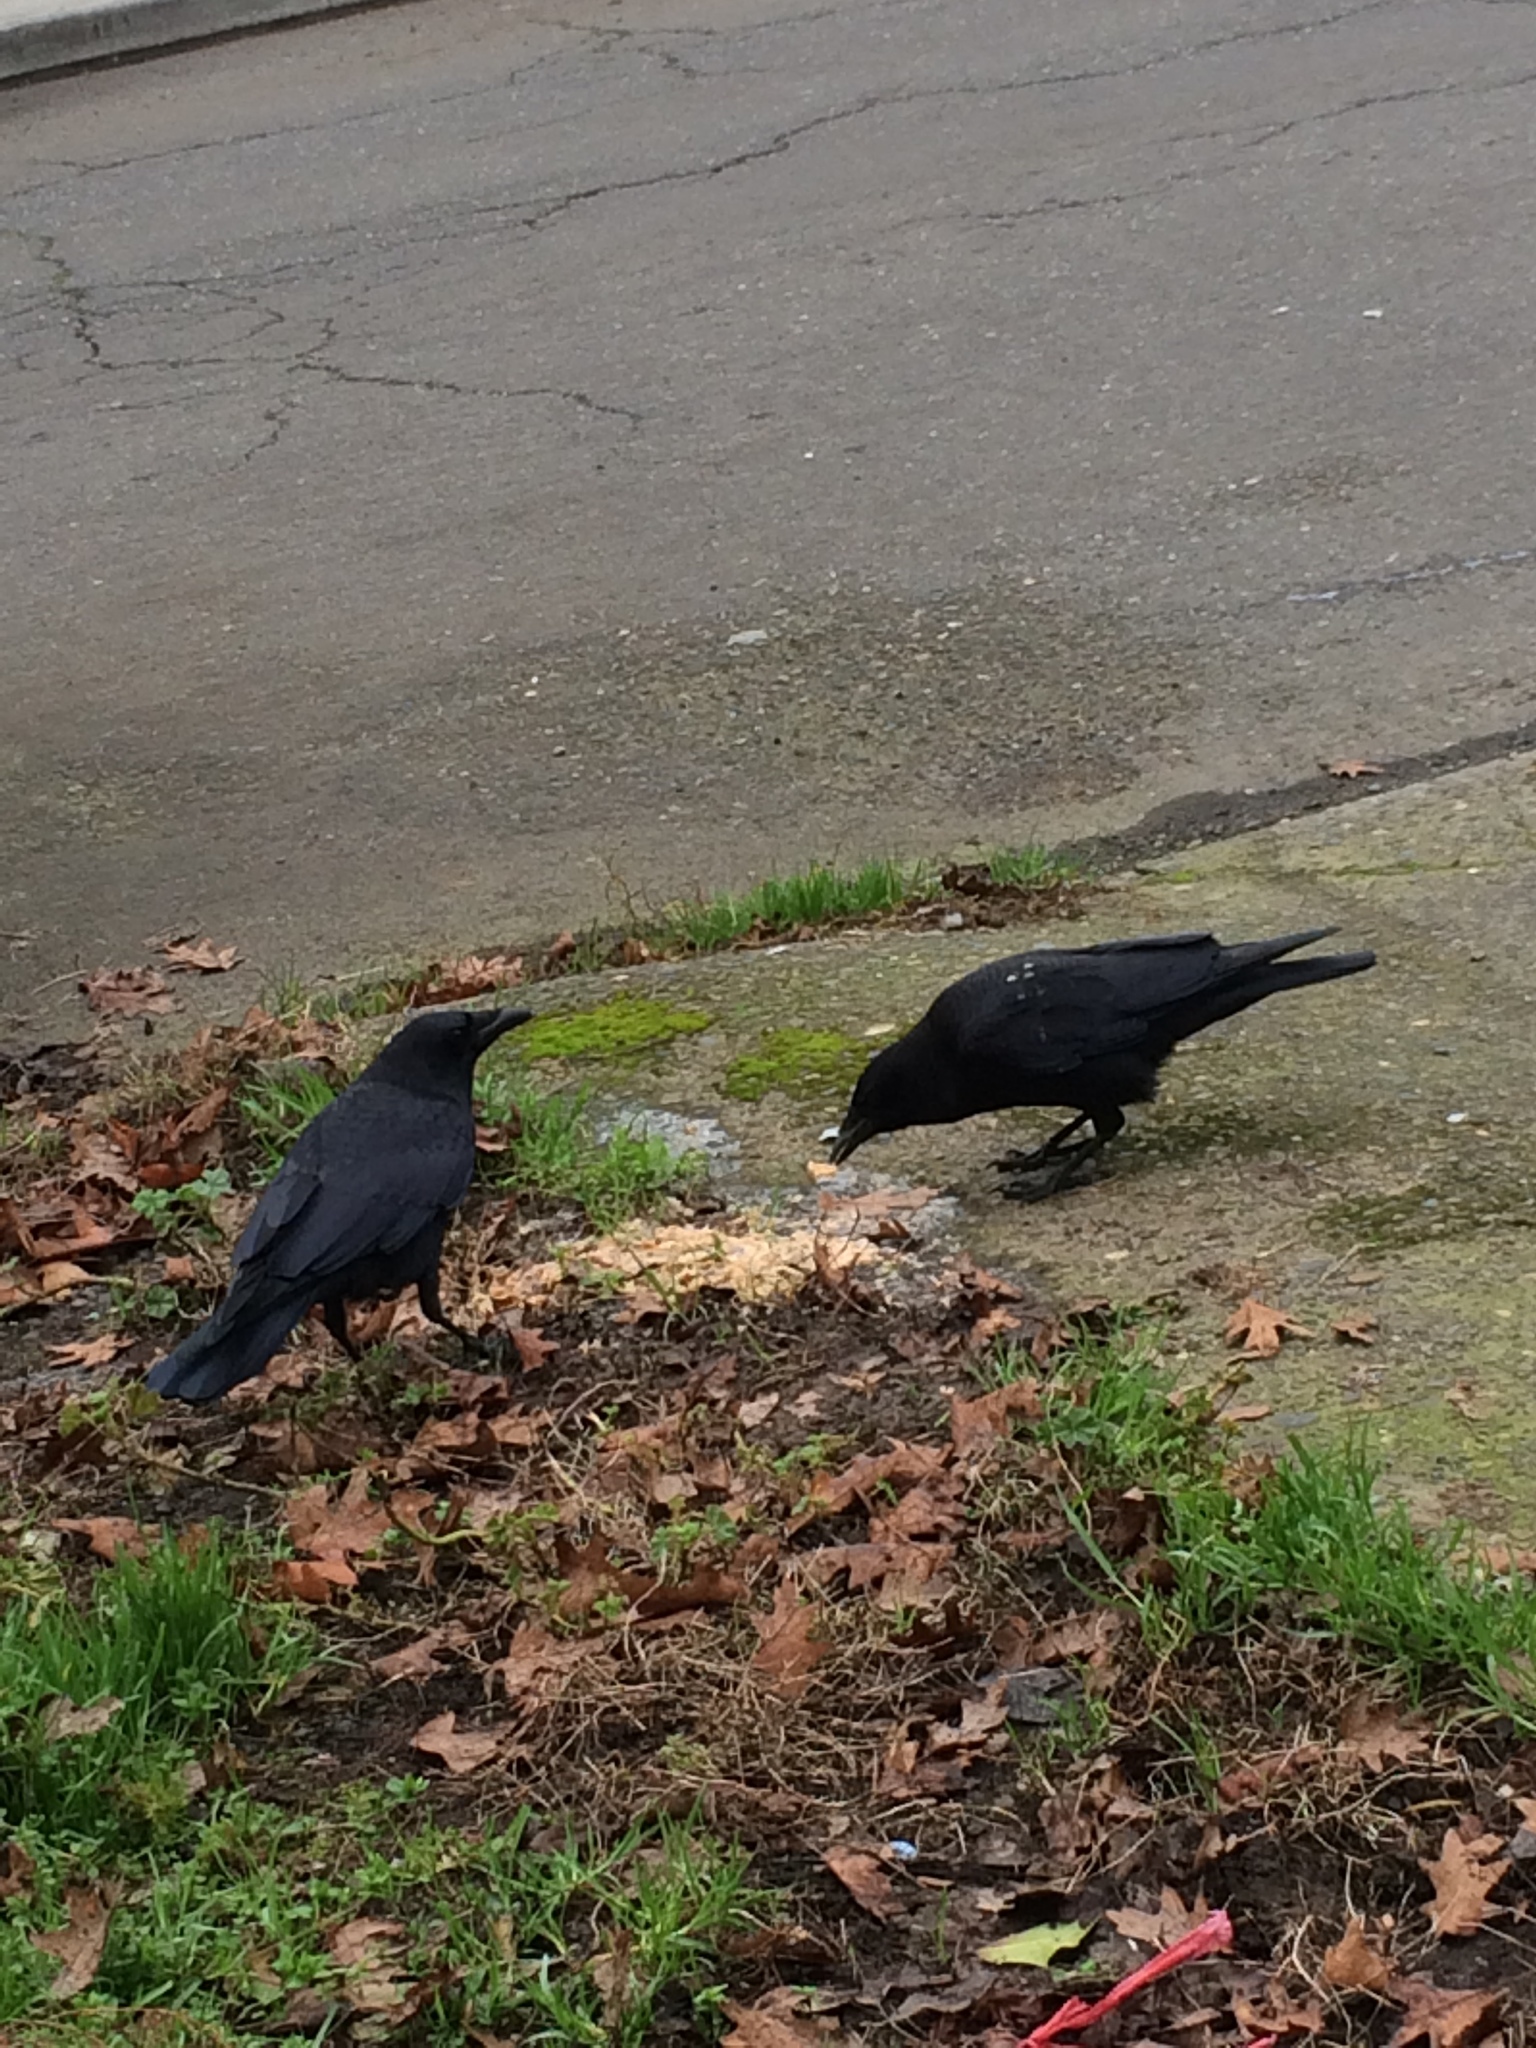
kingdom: Animalia
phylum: Chordata
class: Aves
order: Passeriformes
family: Corvidae
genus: Corvus
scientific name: Corvus brachyrhynchos
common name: American crow
